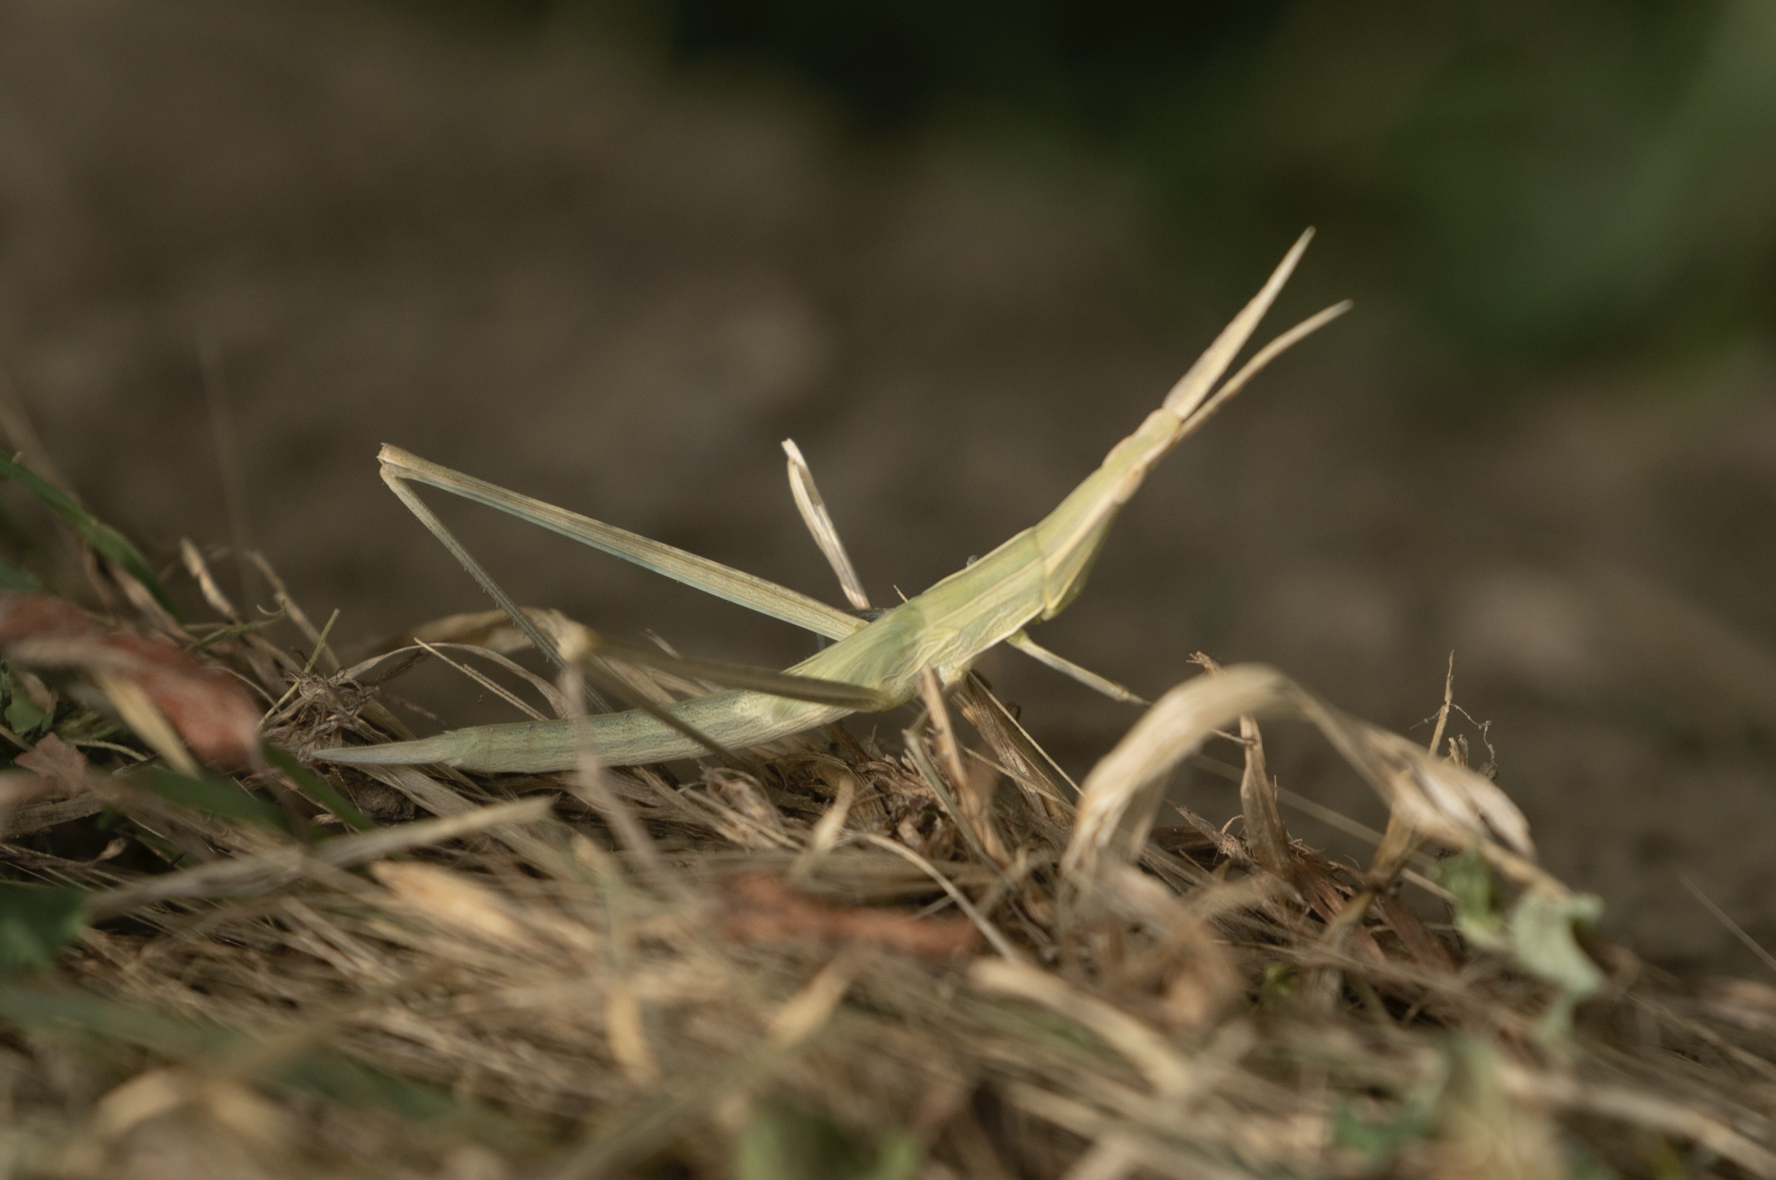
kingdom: Animalia
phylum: Arthropoda
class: Insecta
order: Orthoptera
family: Acrididae
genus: Acrida
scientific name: Acrida ungarica
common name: Common cone-headed grasshopper
